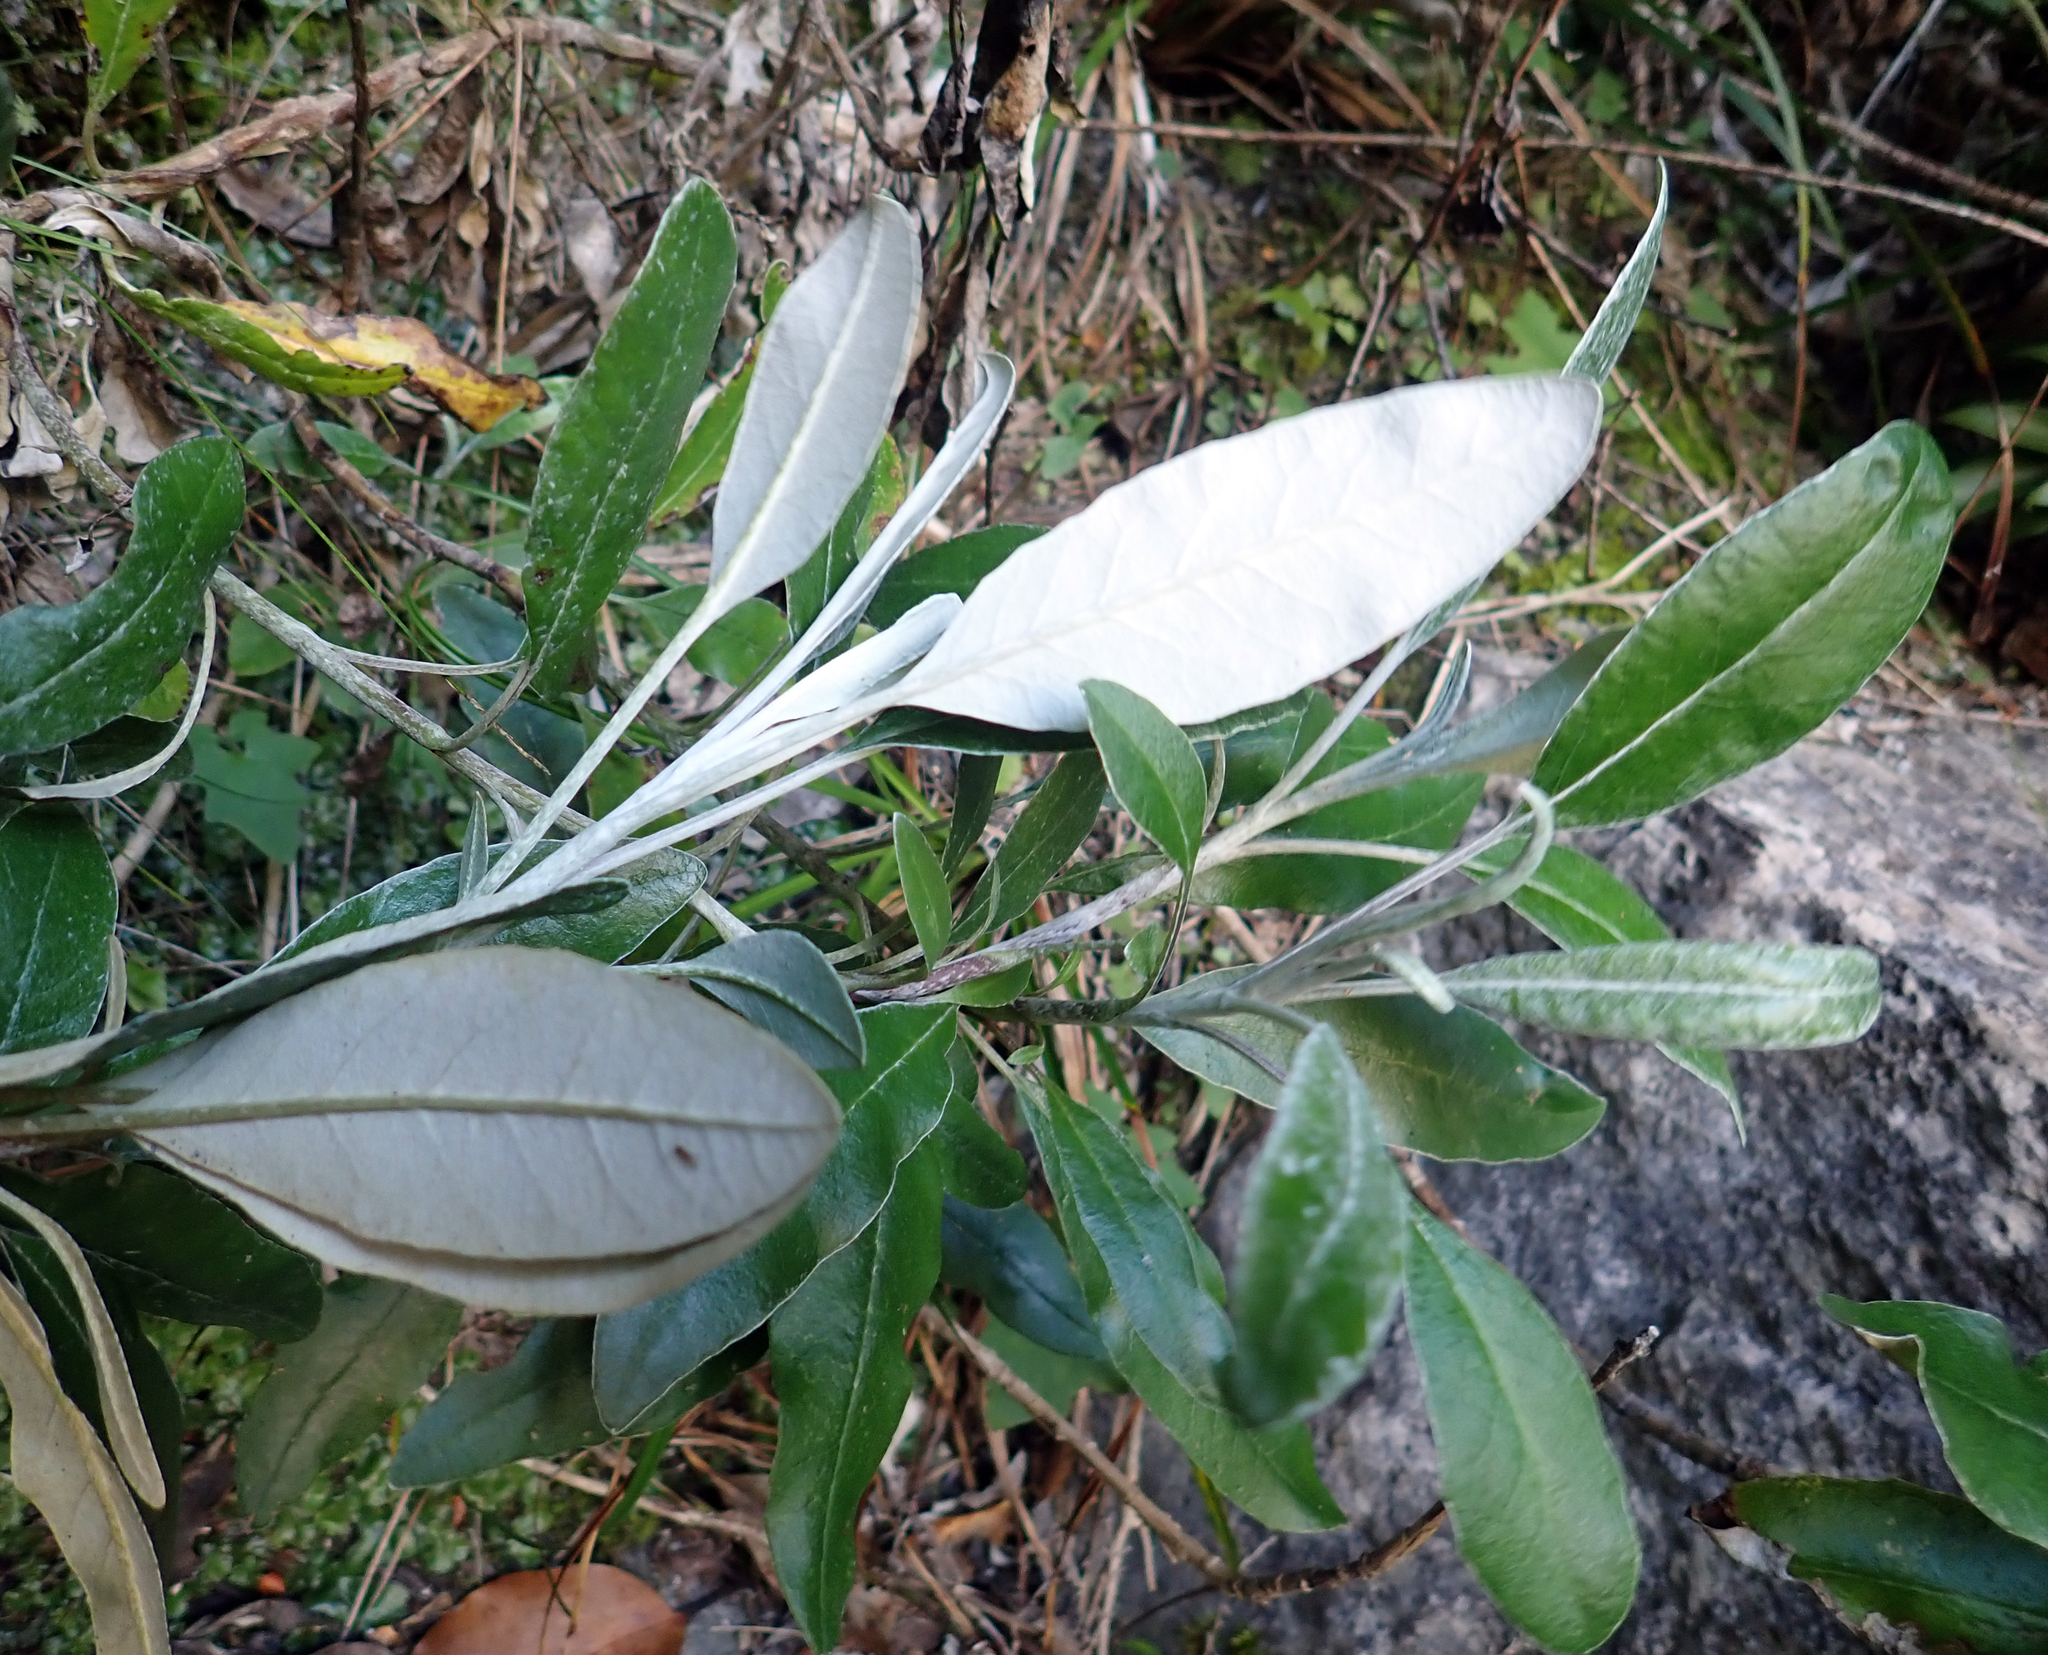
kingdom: Plantae
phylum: Tracheophyta
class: Magnoliopsida
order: Asterales
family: Asteraceae
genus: Brachyglottis
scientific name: Brachyglottis laxifolia
